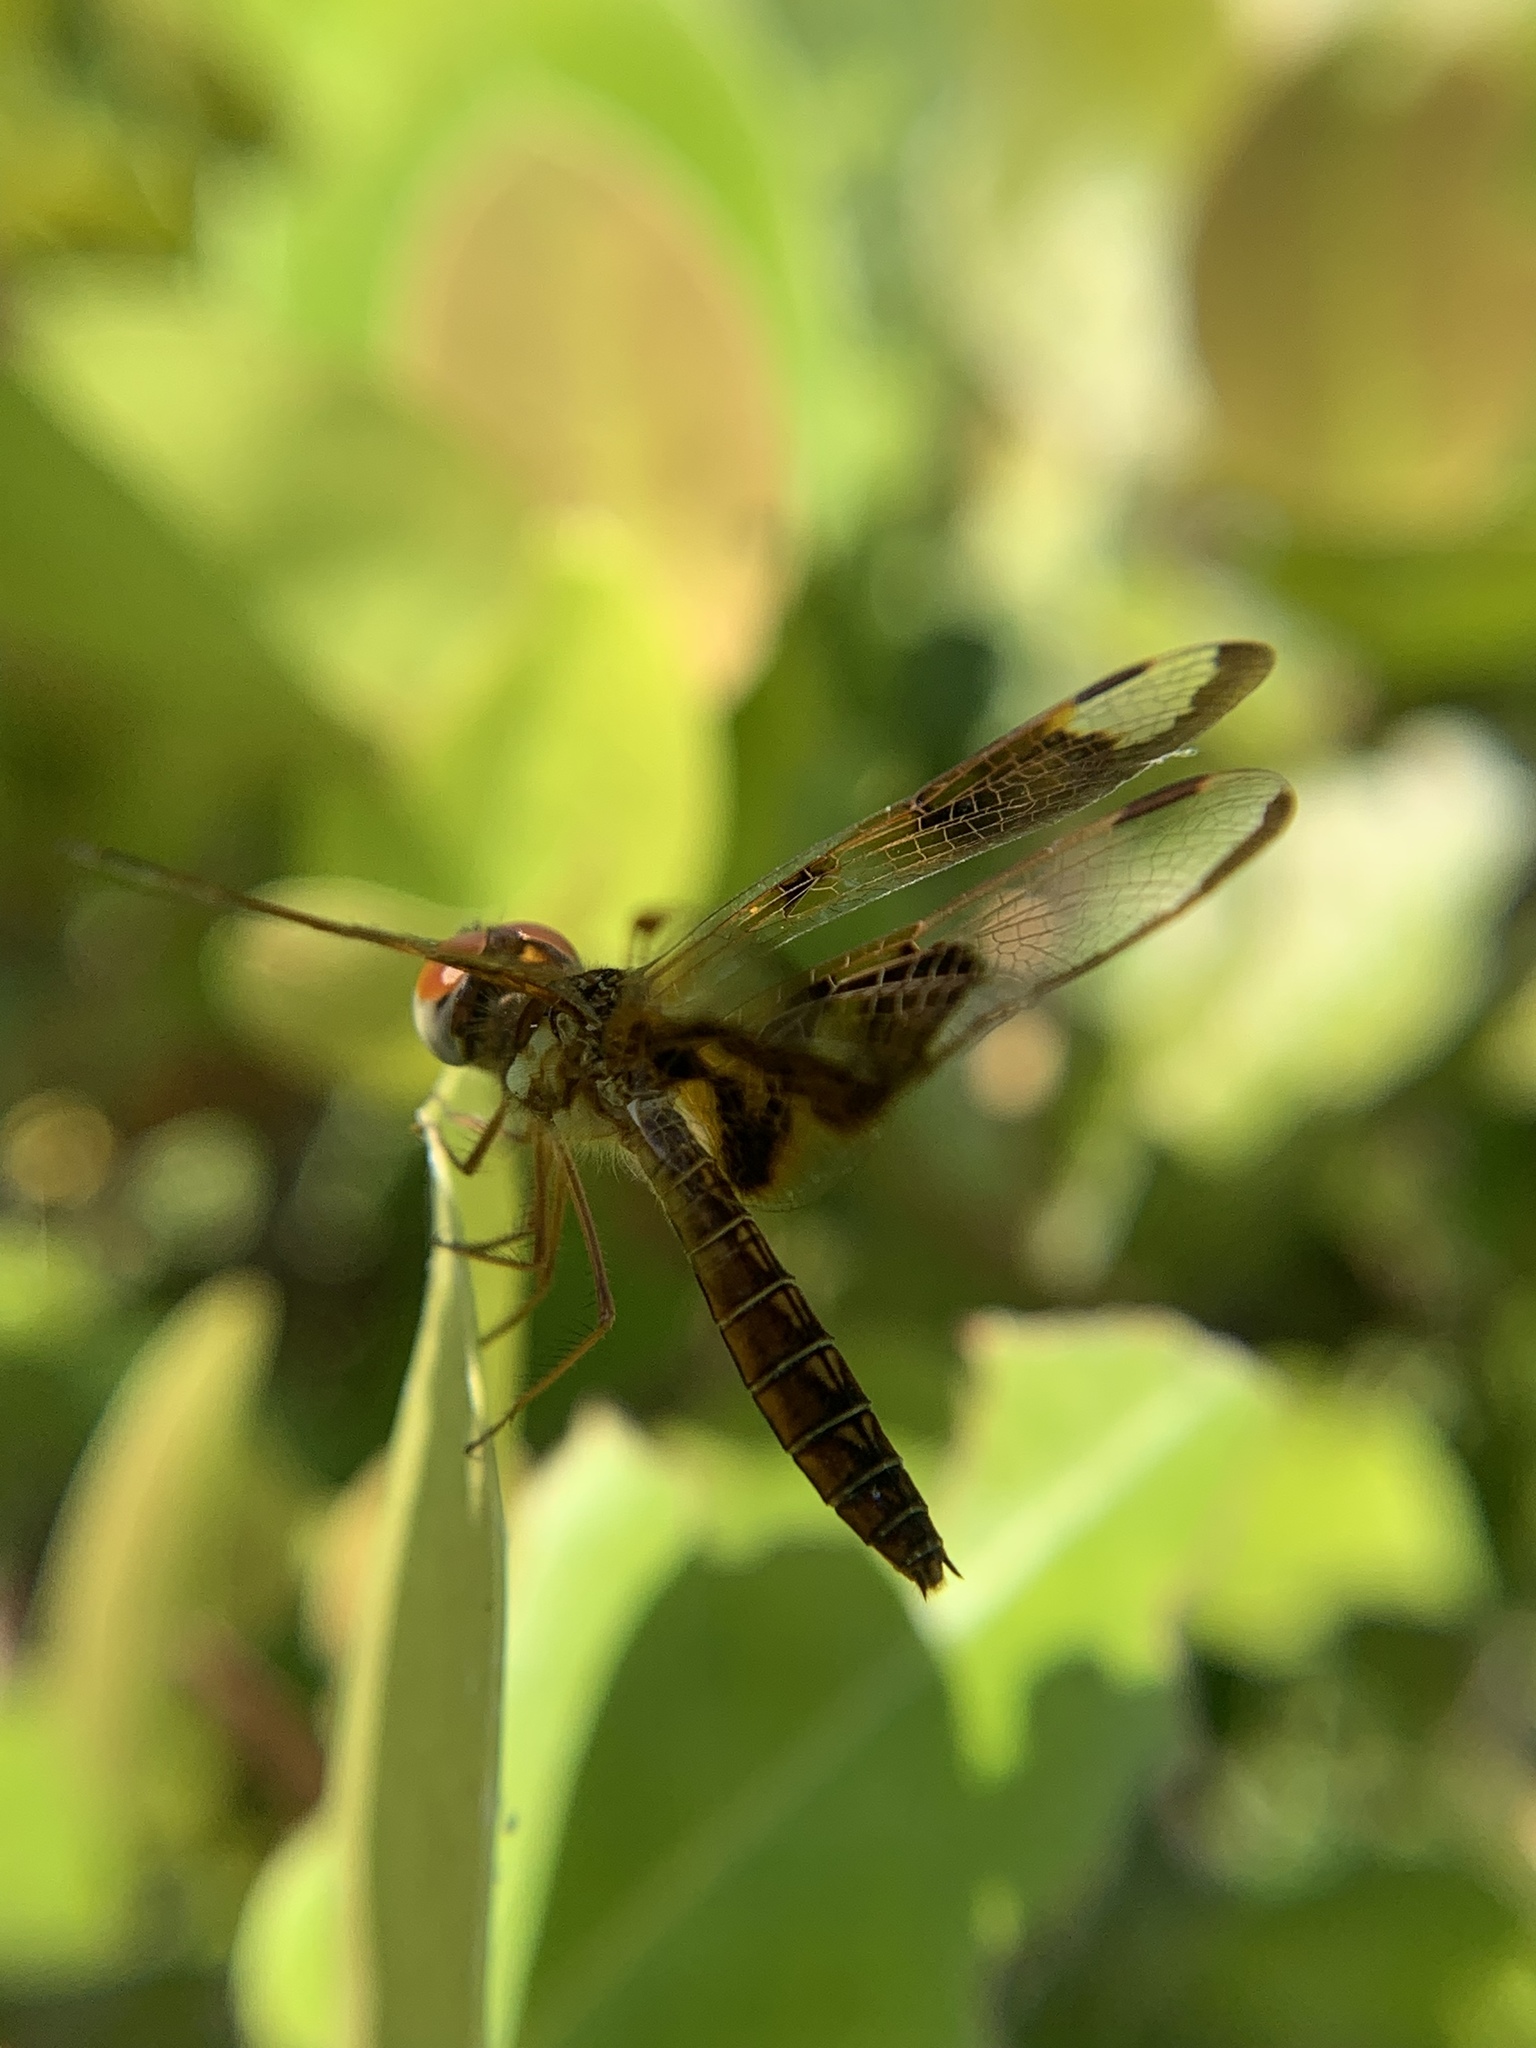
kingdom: Animalia
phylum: Arthropoda
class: Insecta
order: Odonata
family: Libellulidae
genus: Perithemis
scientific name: Perithemis tenera
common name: Eastern amberwing
